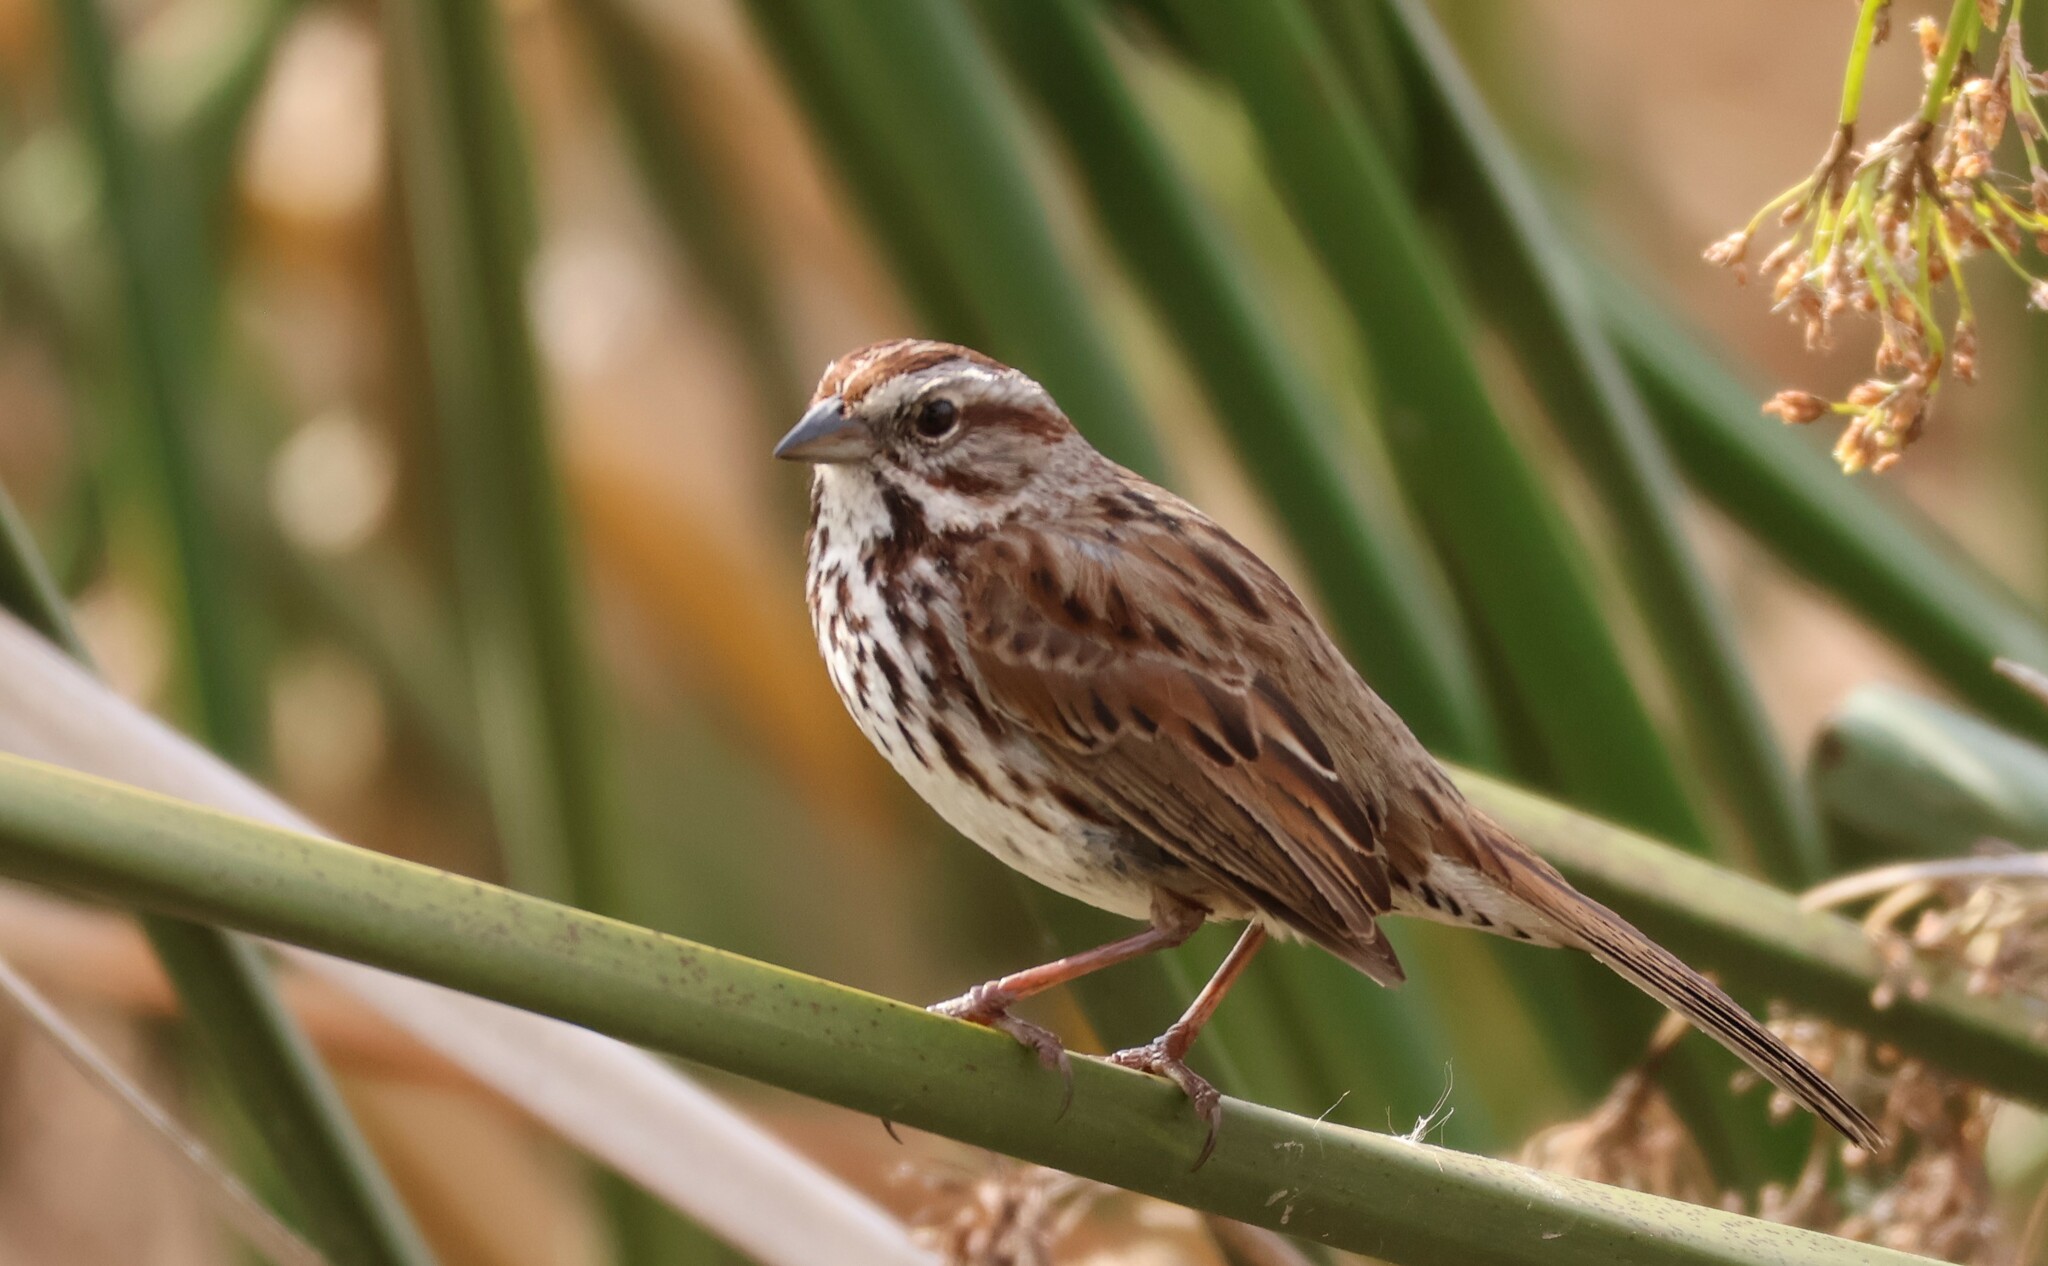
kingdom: Animalia
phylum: Chordata
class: Aves
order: Passeriformes
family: Passerellidae
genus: Melospiza
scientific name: Melospiza melodia
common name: Song sparrow
